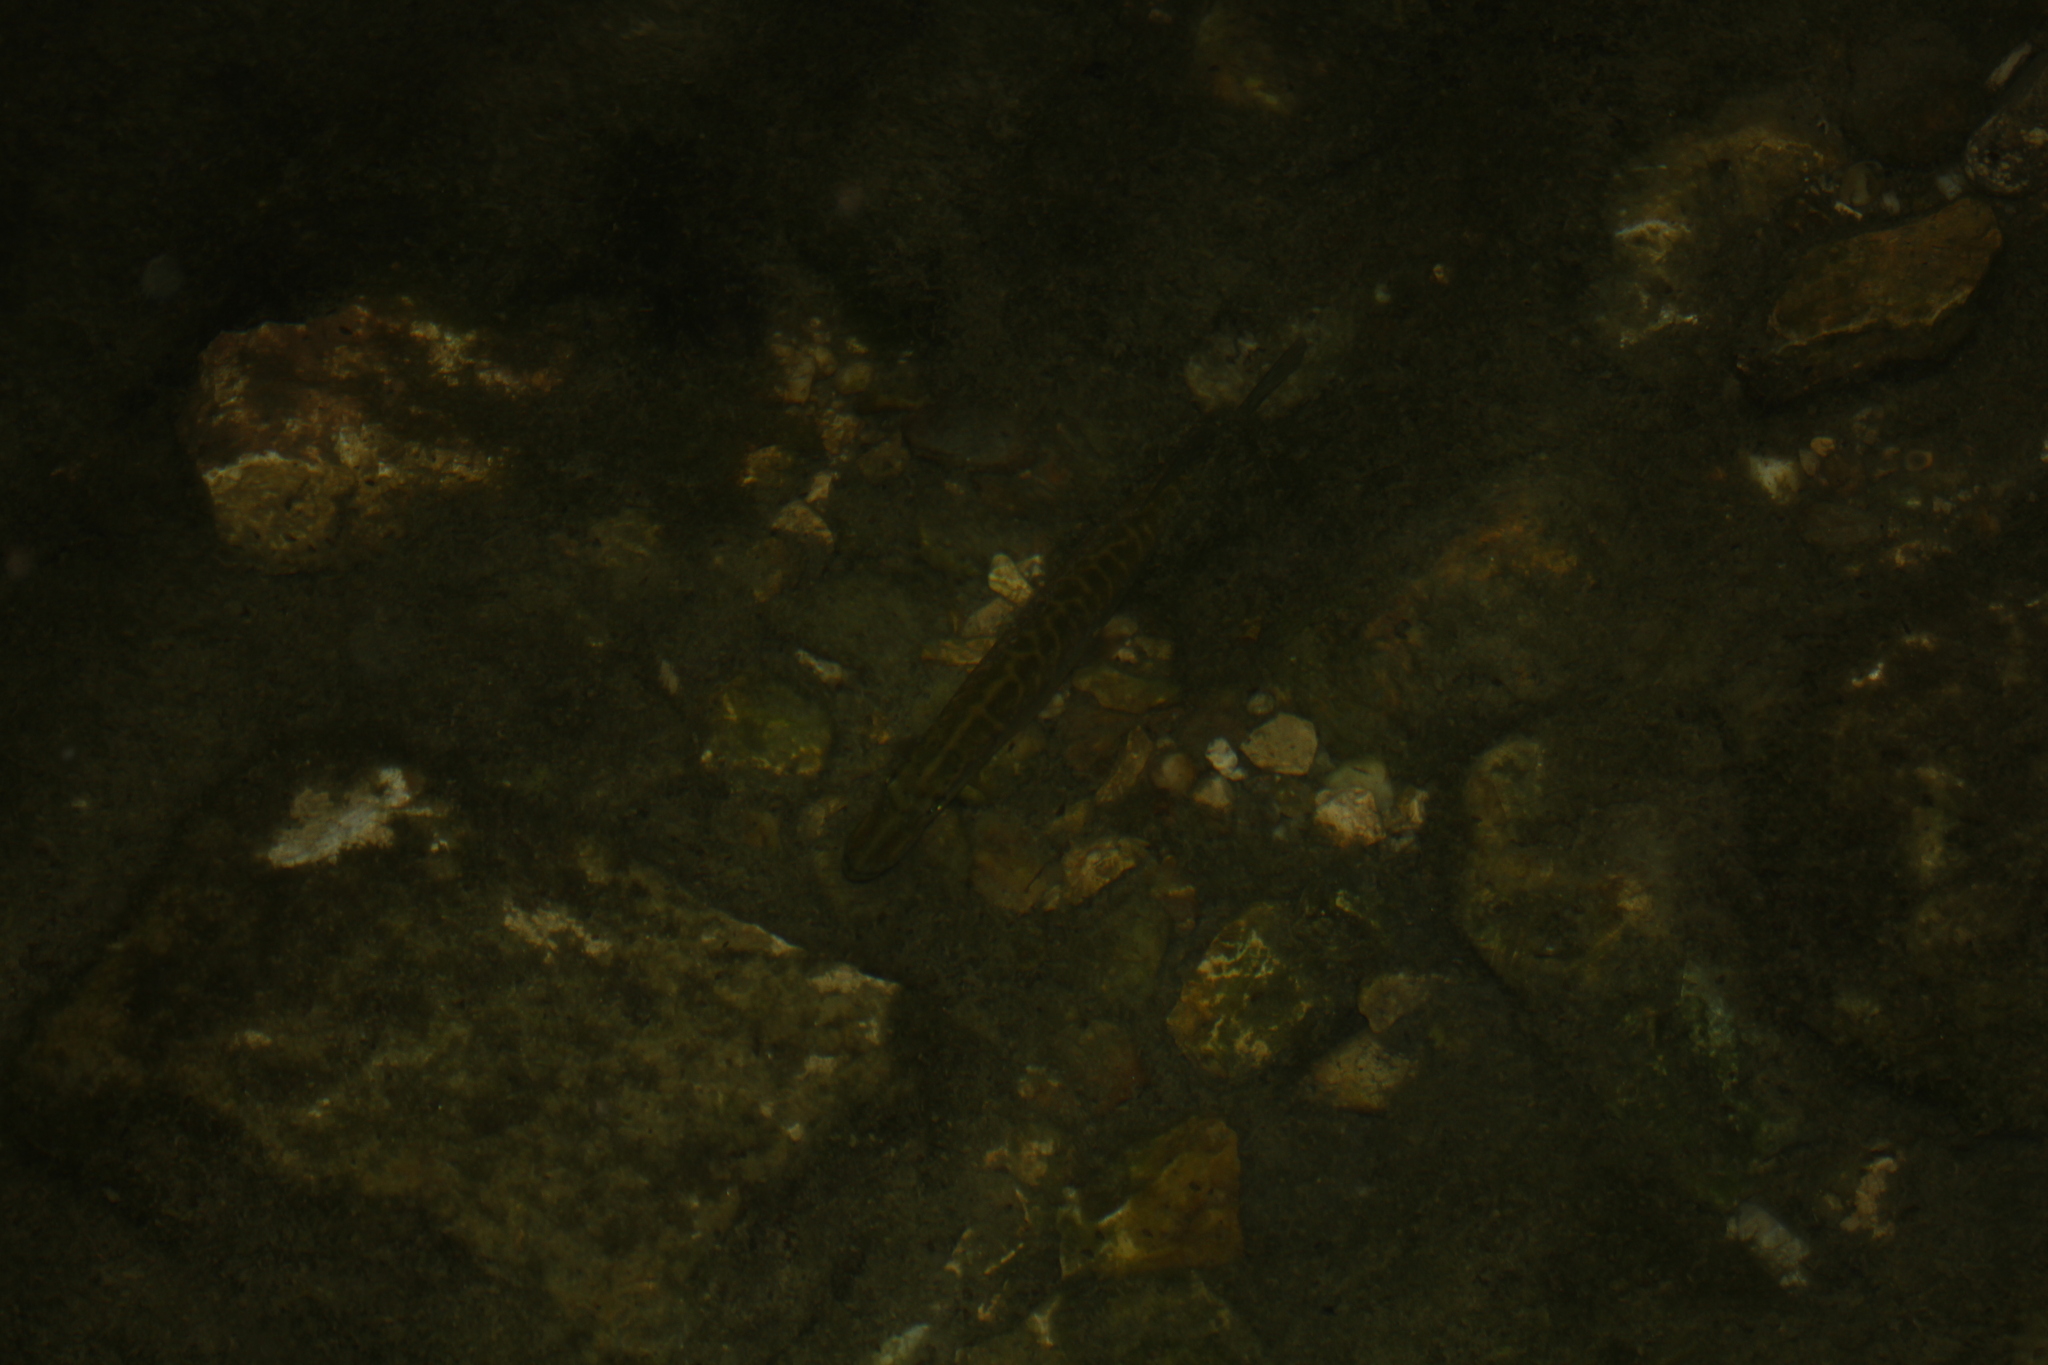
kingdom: Animalia
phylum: Chordata
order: Esociformes
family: Esocidae
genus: Esox
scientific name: Esox lucius
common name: Northern pike
